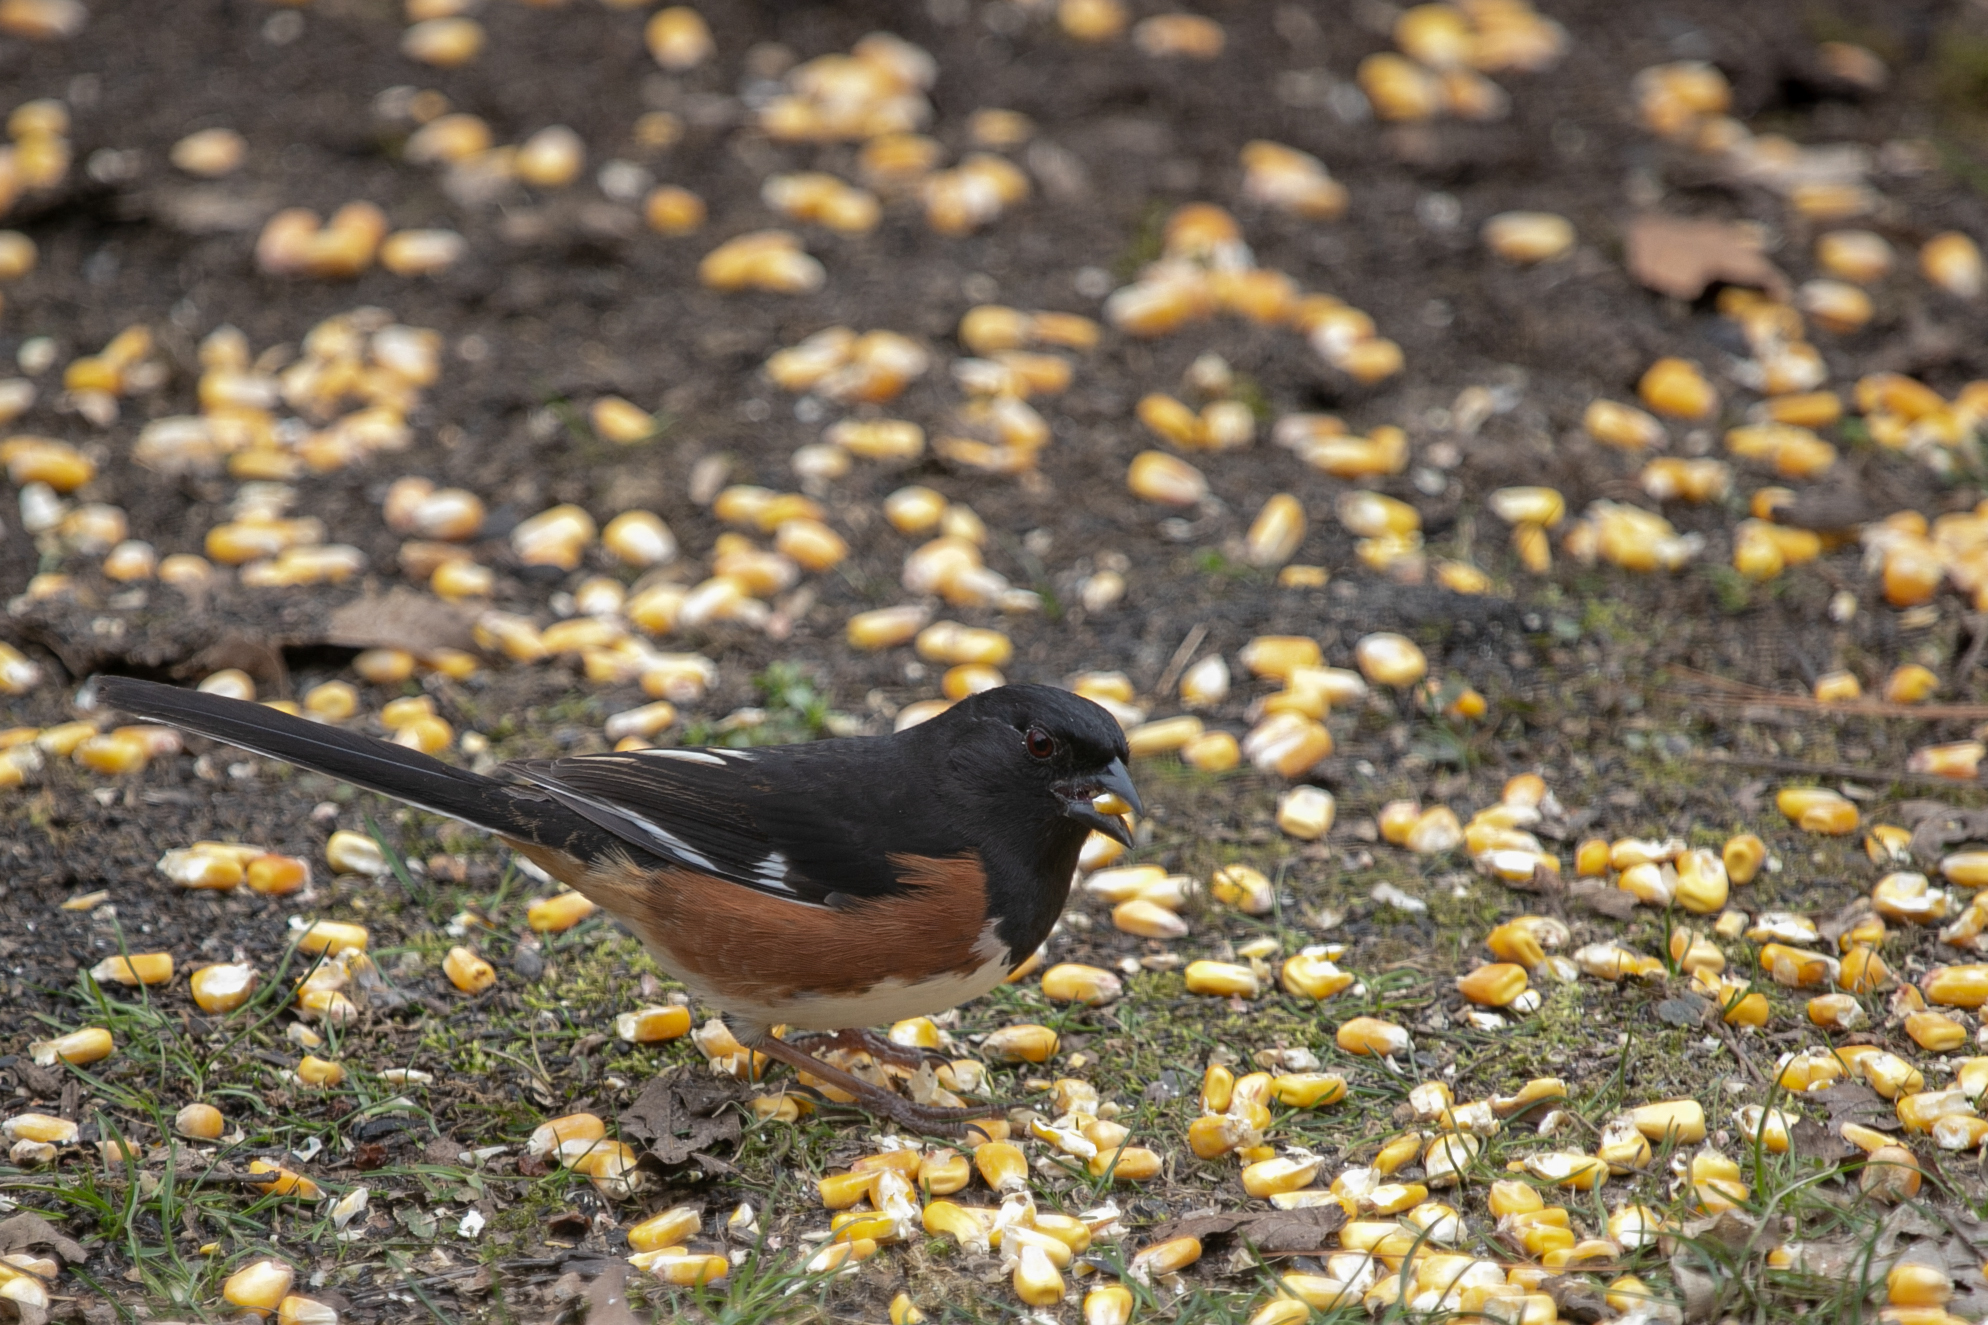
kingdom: Animalia
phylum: Chordata
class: Aves
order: Passeriformes
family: Passerellidae
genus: Pipilo
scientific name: Pipilo erythrophthalmus
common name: Eastern towhee
